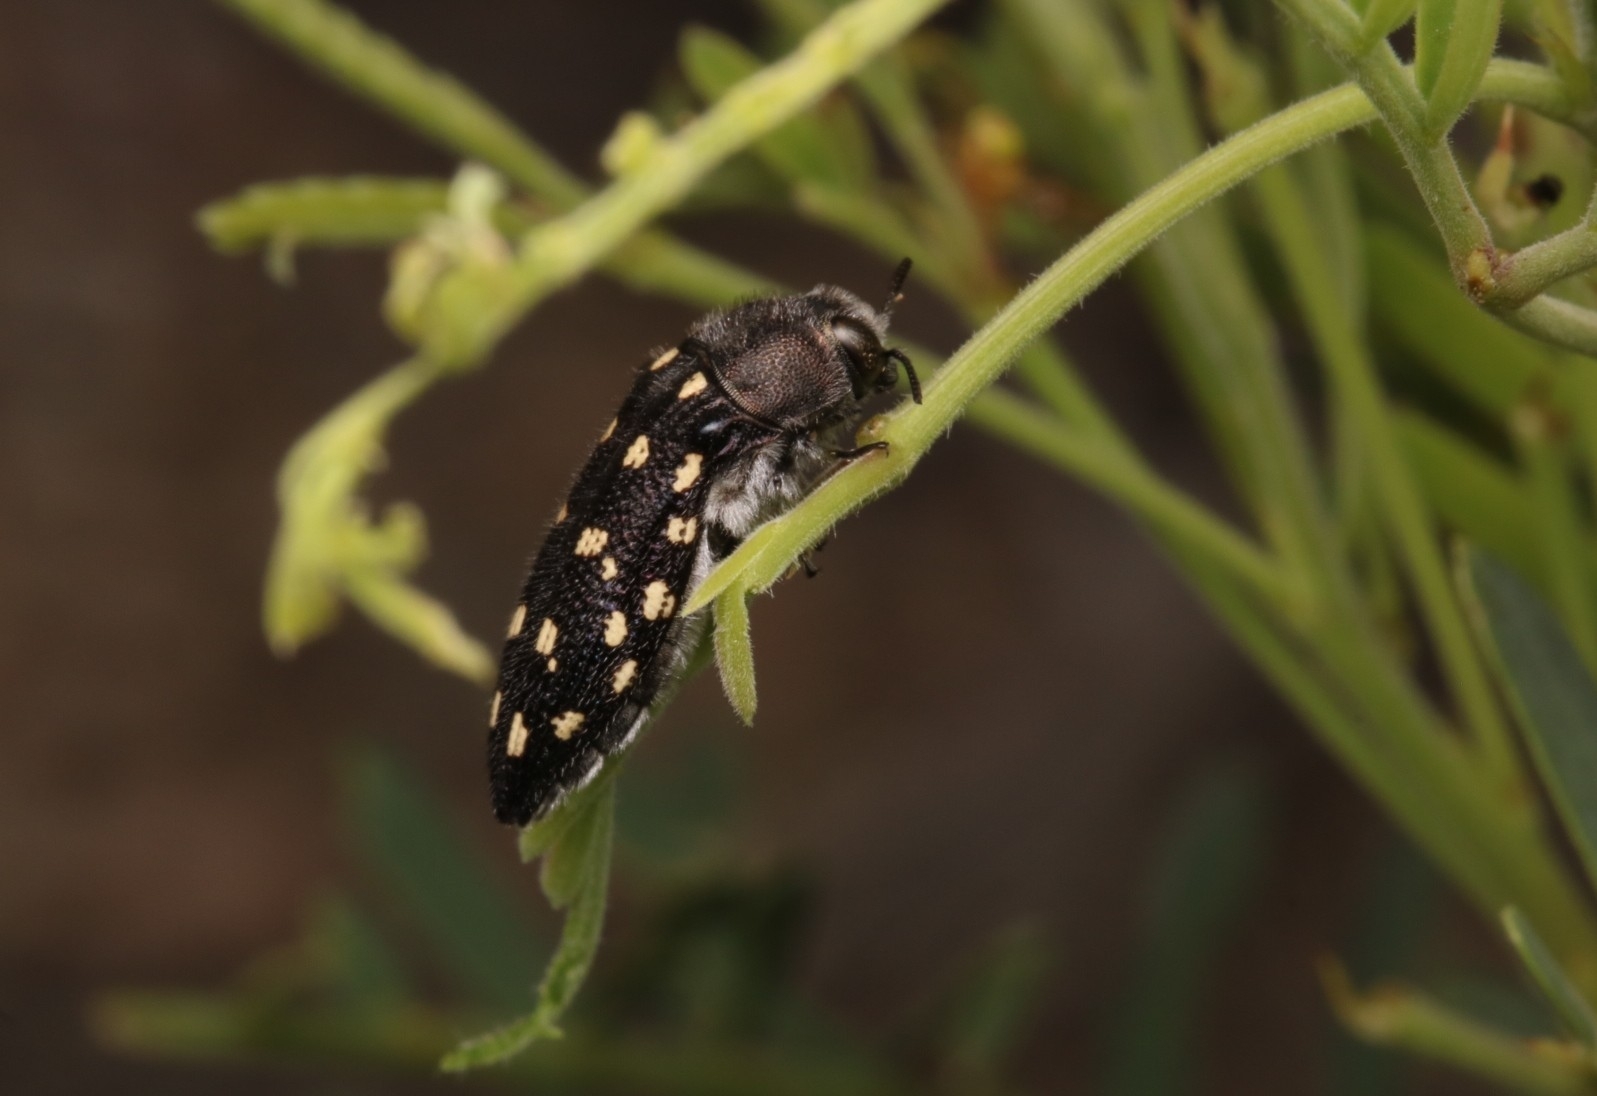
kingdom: Animalia
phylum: Arthropoda
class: Insecta
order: Coleoptera
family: Buprestidae
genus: Acmaeodera
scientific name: Acmaeodera delumbis
